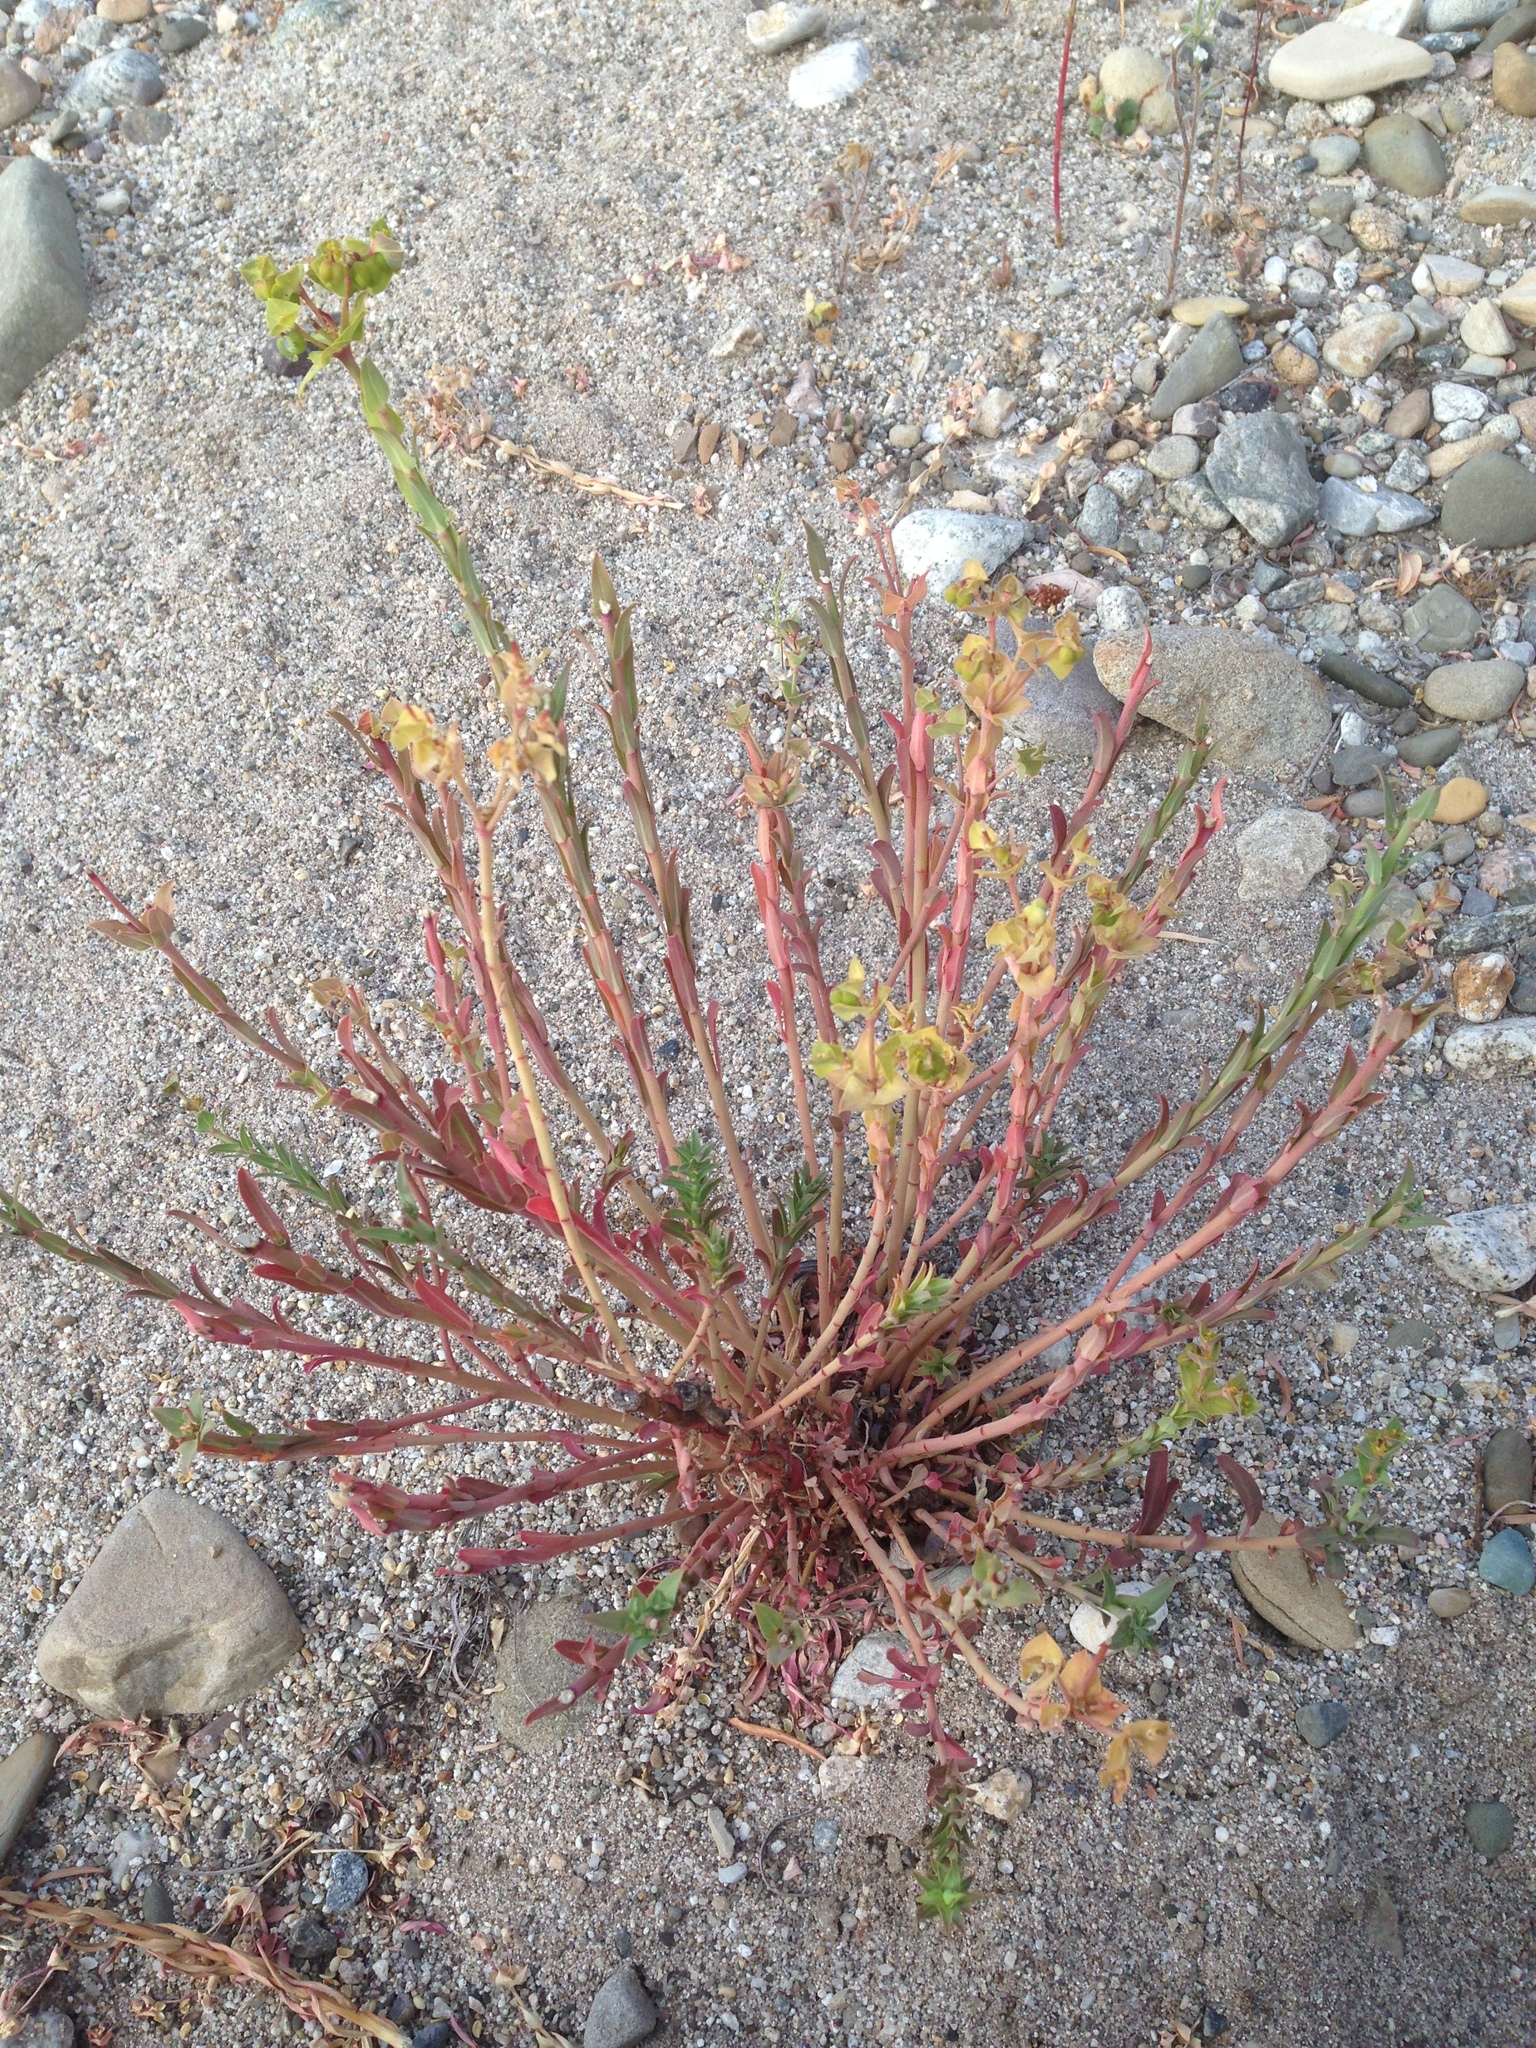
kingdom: Plantae
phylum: Tracheophyta
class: Magnoliopsida
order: Malpighiales
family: Euphorbiaceae
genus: Euphorbia
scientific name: Euphorbia terracina
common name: Geraldton carnation weed
